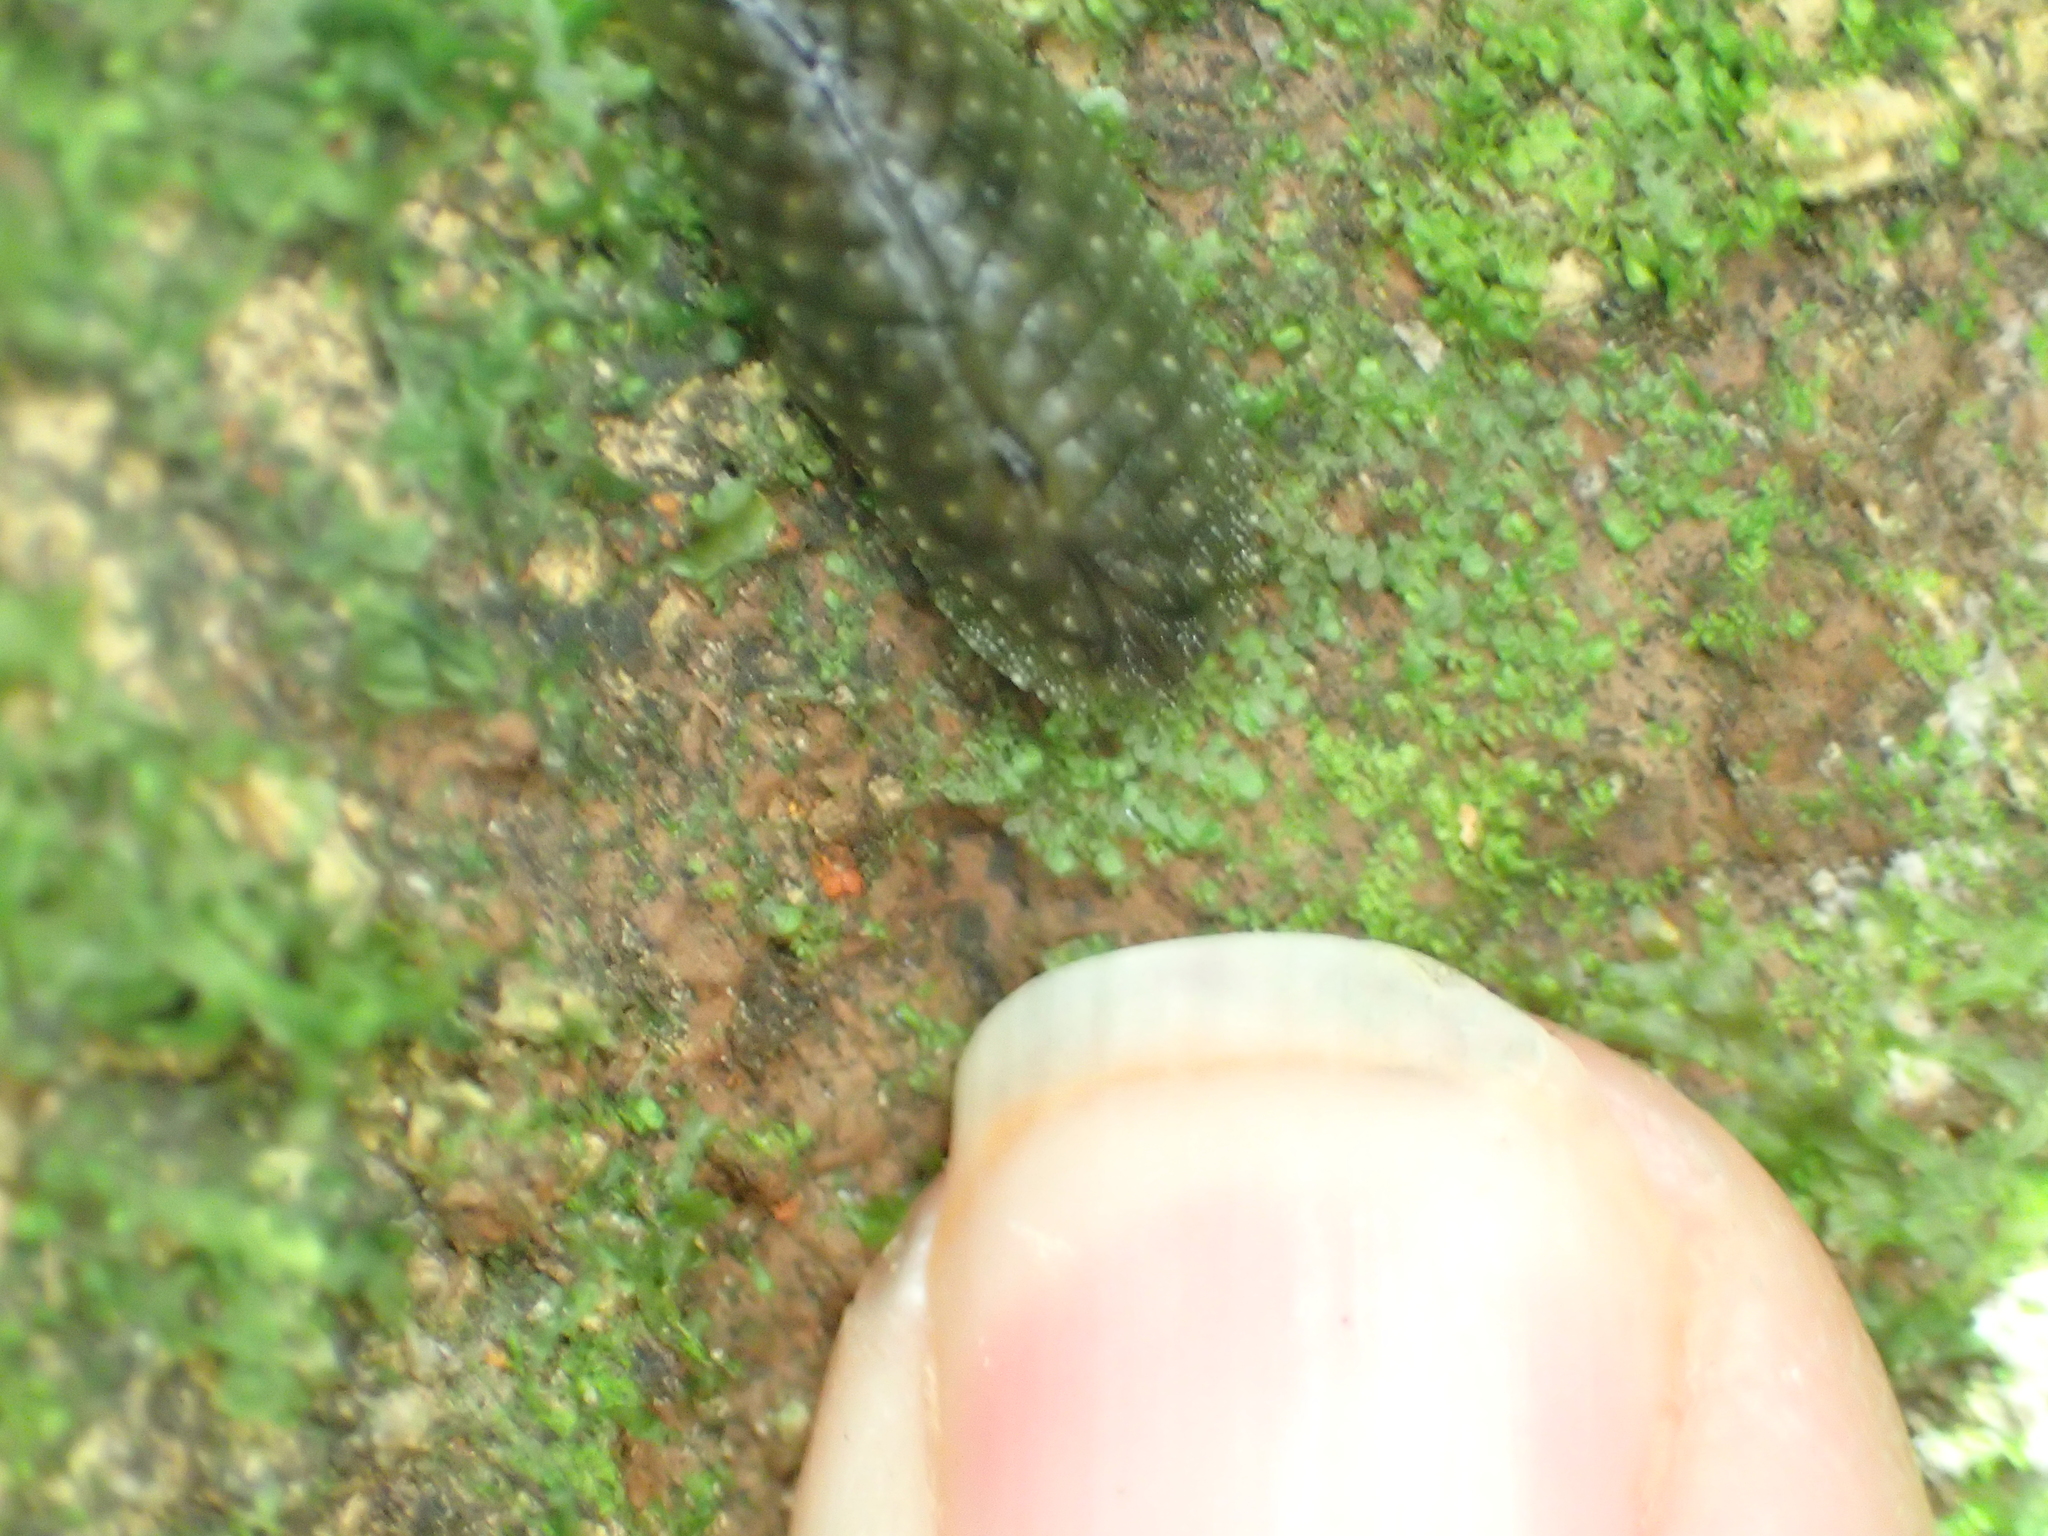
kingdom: Animalia
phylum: Mollusca
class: Gastropoda
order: Stylommatophora
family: Athoracophoridae
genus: Athoracophorus
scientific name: Athoracophorus papillatus
